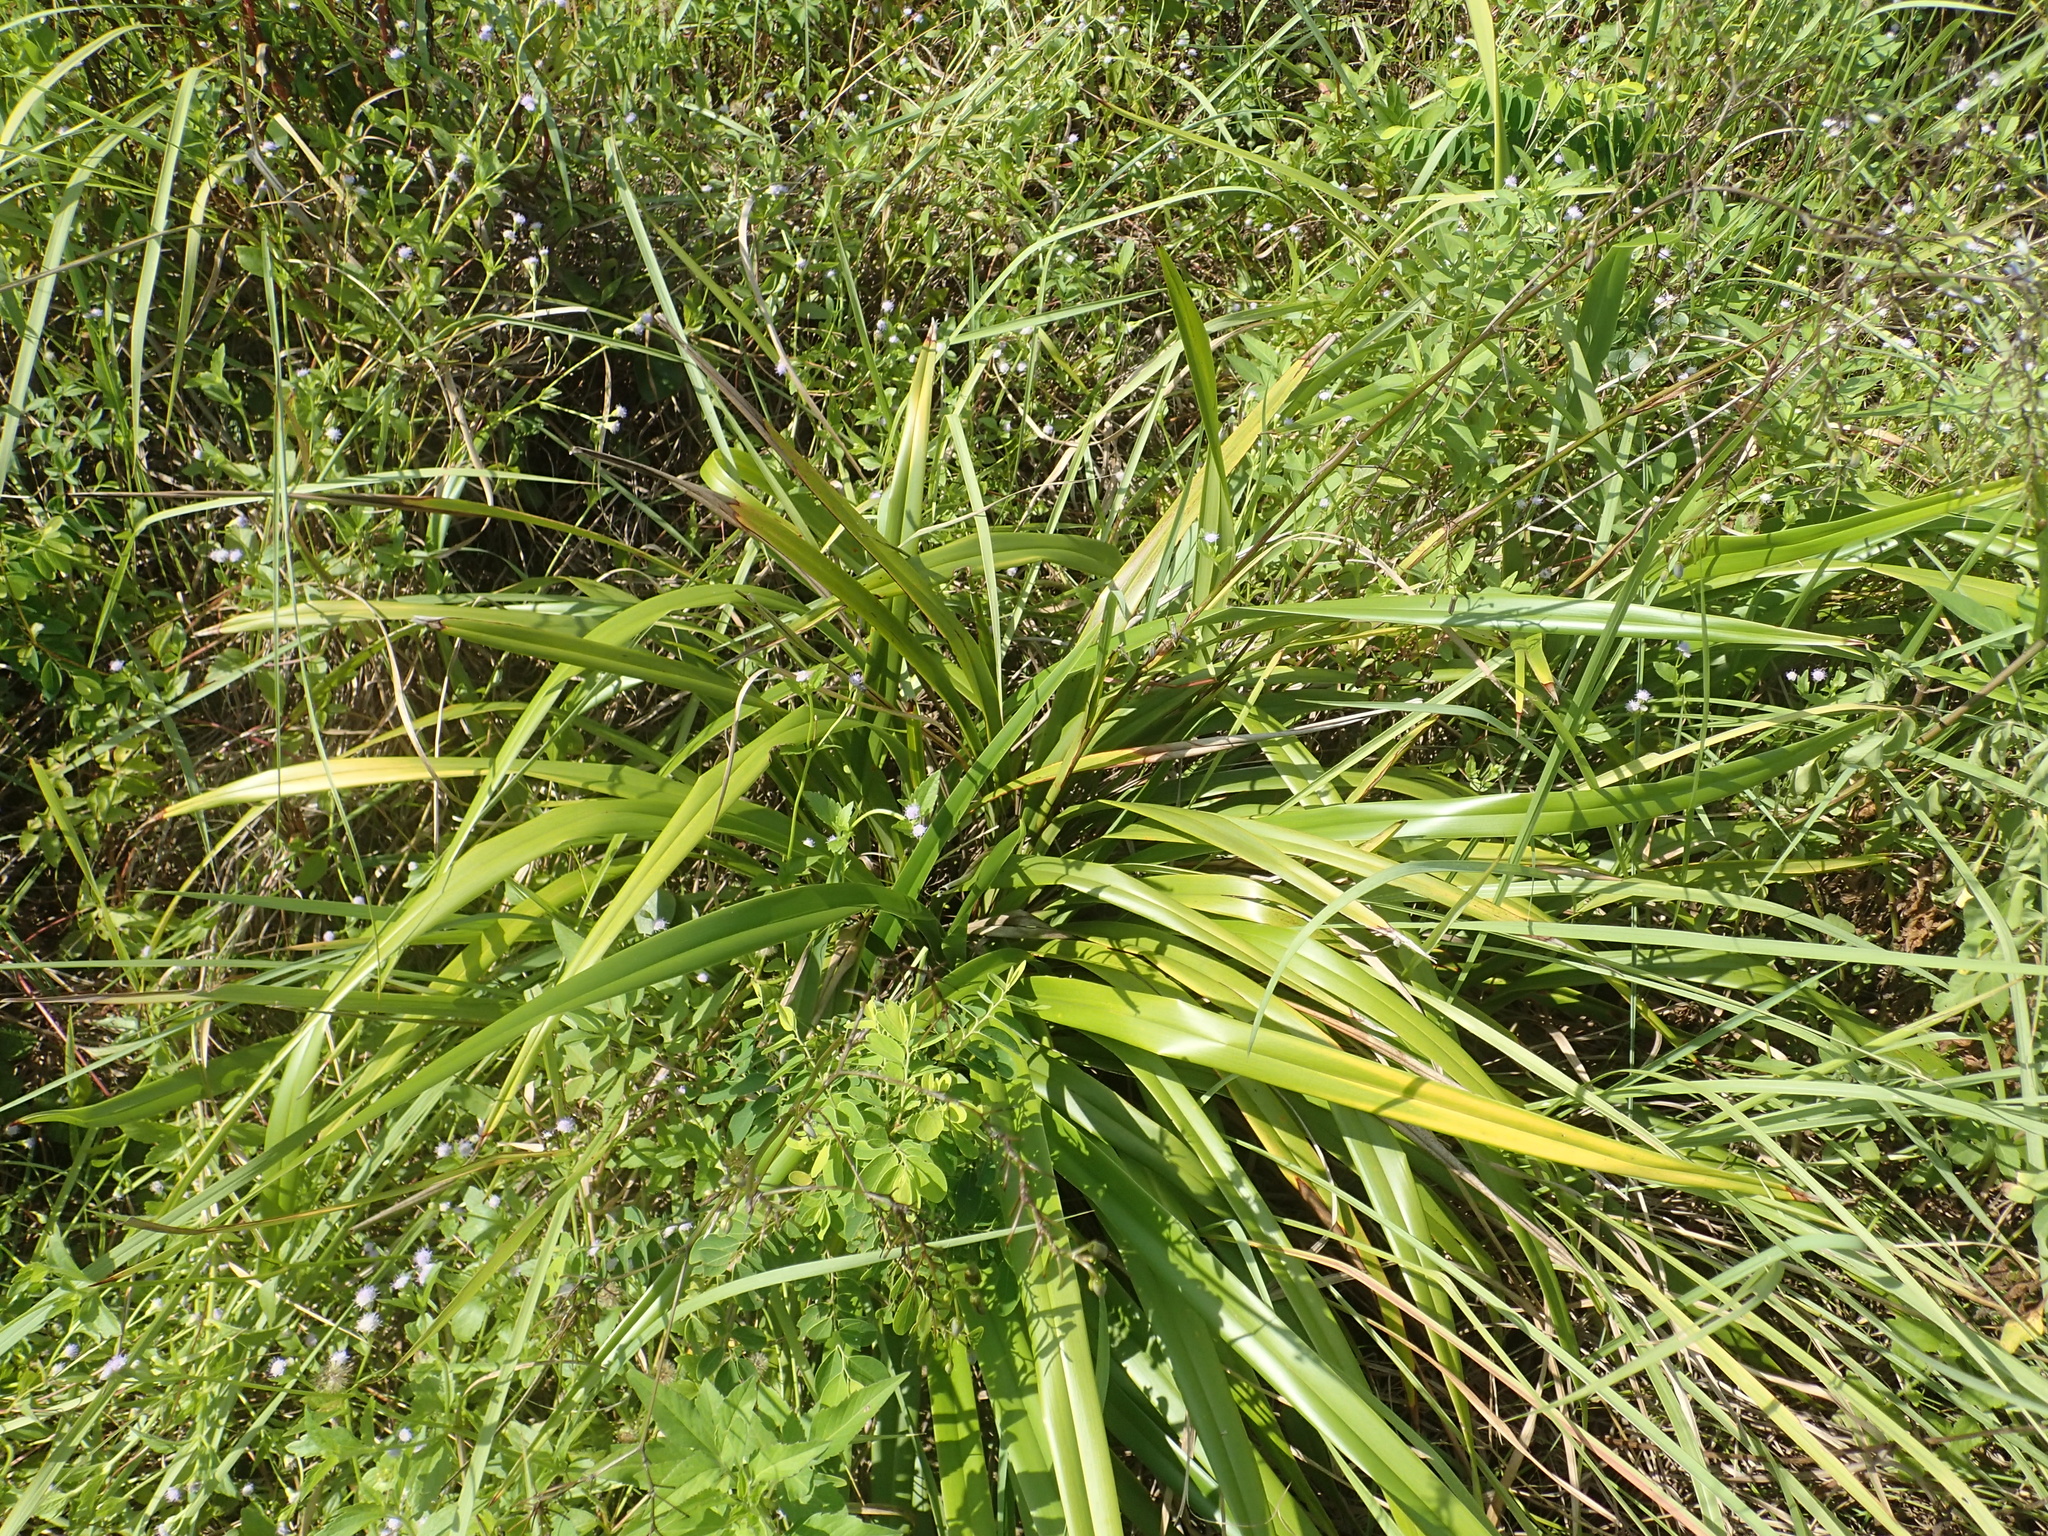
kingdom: Plantae
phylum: Tracheophyta
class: Liliopsida
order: Asparagales
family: Asphodelaceae
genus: Dianella
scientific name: Dianella ensifolia
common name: New zealand lilyplant
